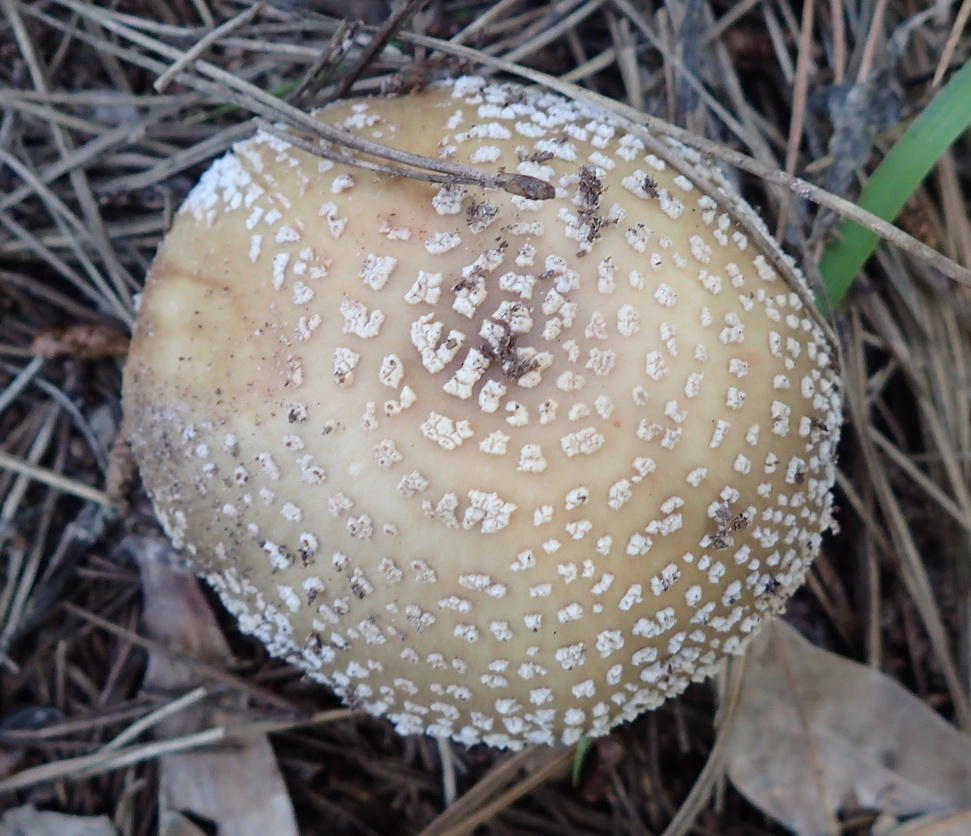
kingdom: Fungi
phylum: Basidiomycota
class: Agaricomycetes
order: Agaricales
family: Amanitaceae
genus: Amanita
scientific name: Amanita rubescens
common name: Blusher
